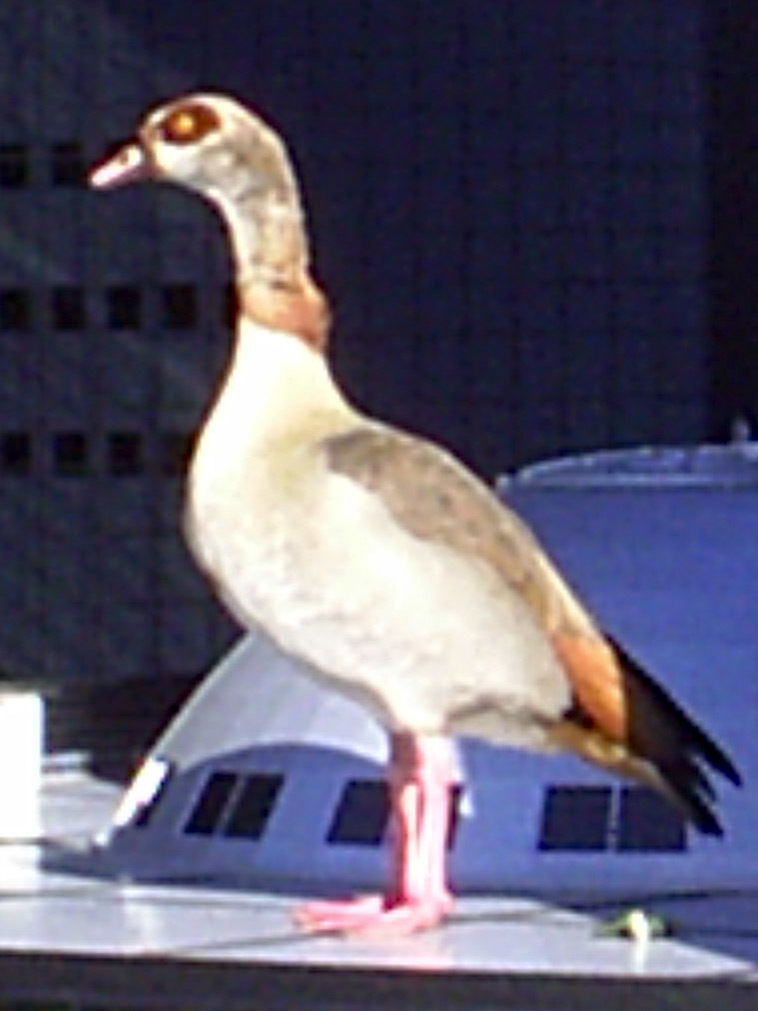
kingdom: Animalia
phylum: Chordata
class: Aves
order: Anseriformes
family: Anatidae
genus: Alopochen
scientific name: Alopochen aegyptiaca
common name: Egyptian goose
